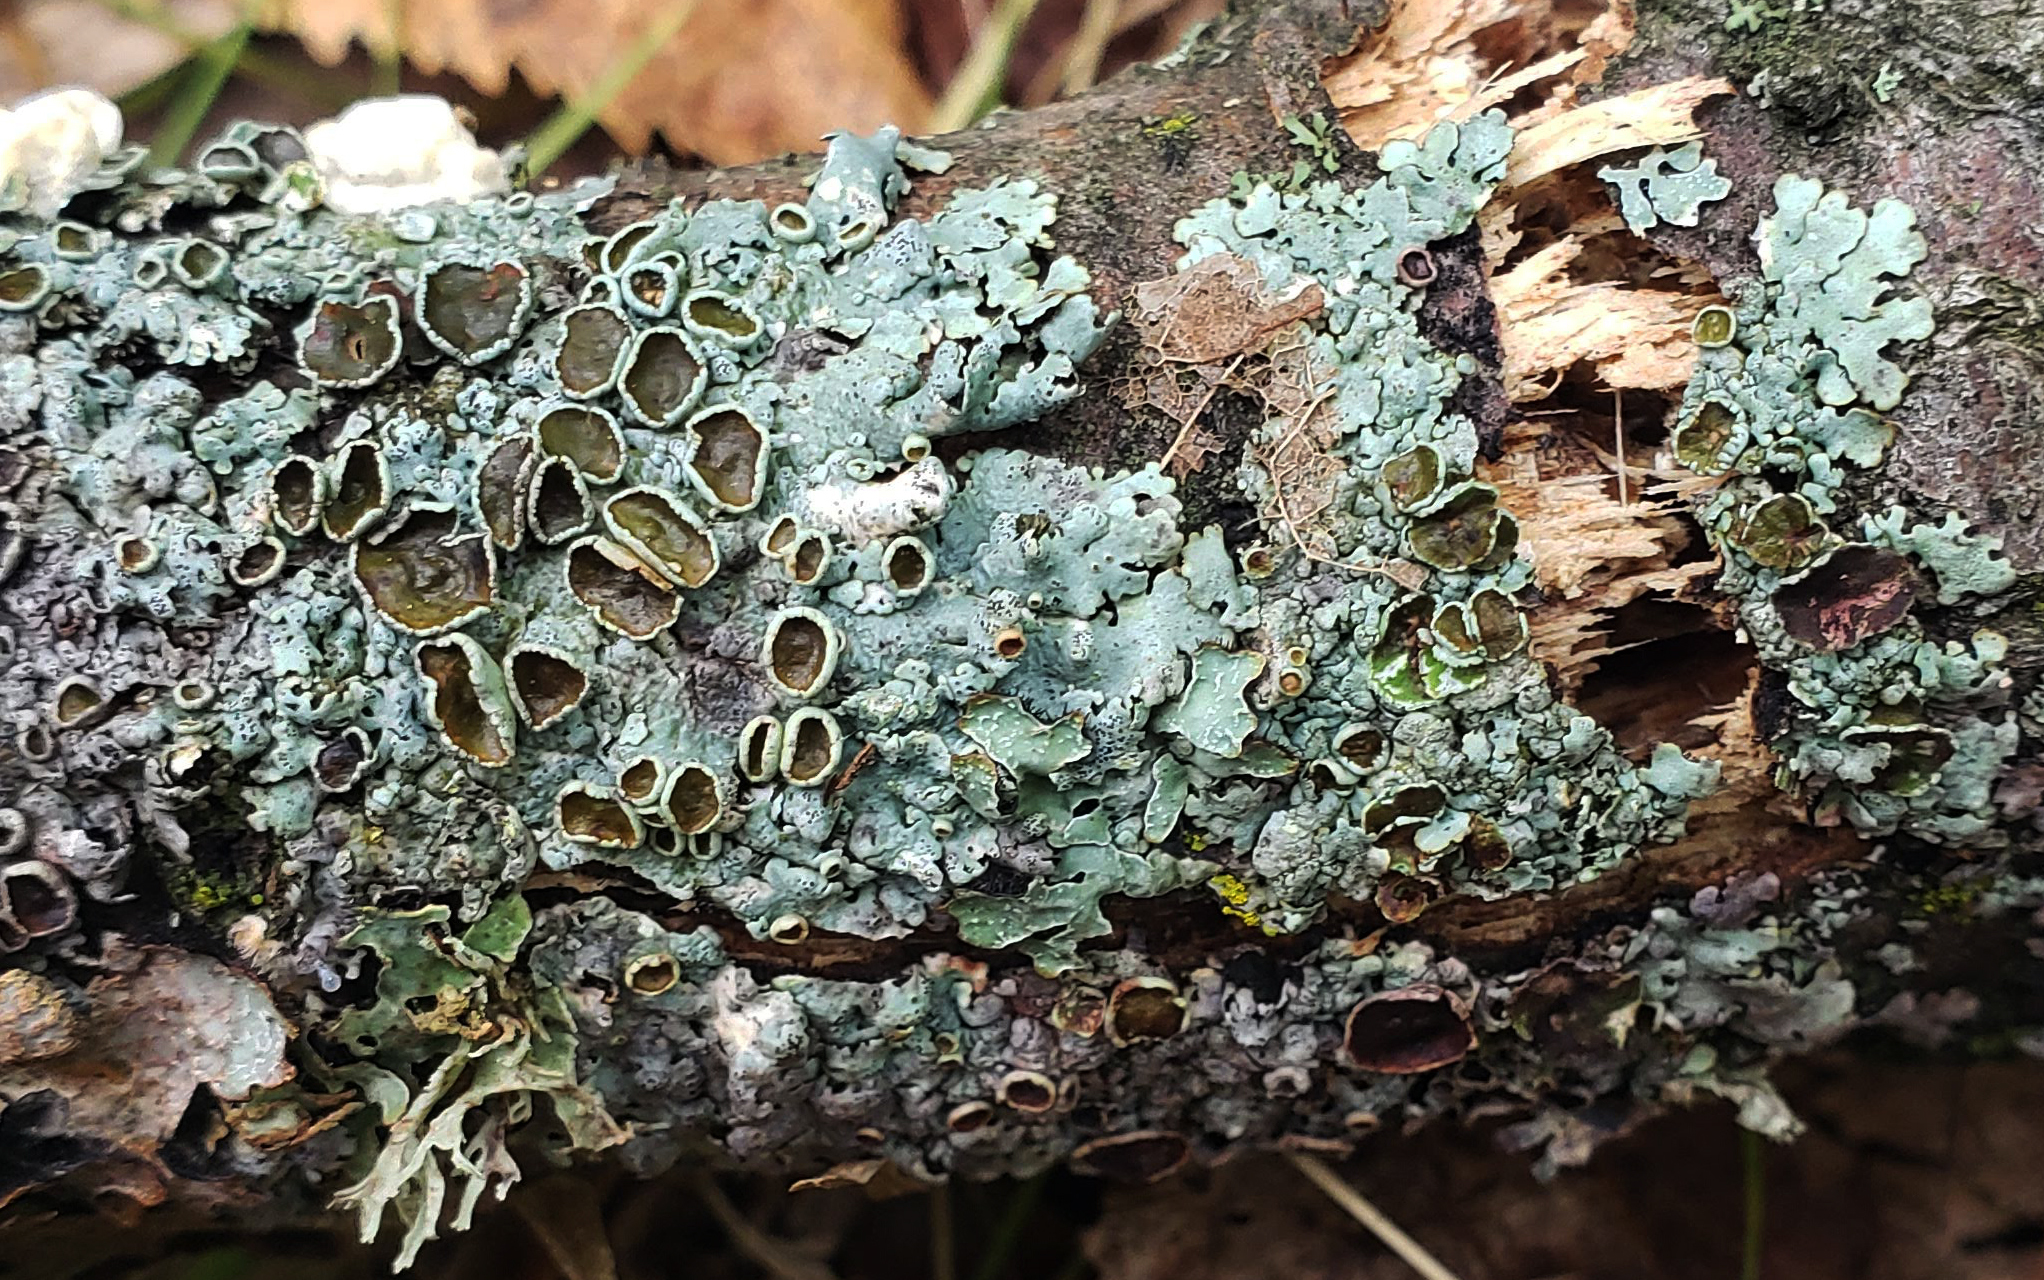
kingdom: Fungi
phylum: Ascomycota
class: Lecanoromycetes
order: Lecanorales
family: Parmeliaceae
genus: Myelochroa
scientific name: Myelochroa galbina
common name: Smooth axil-bristle lichen
